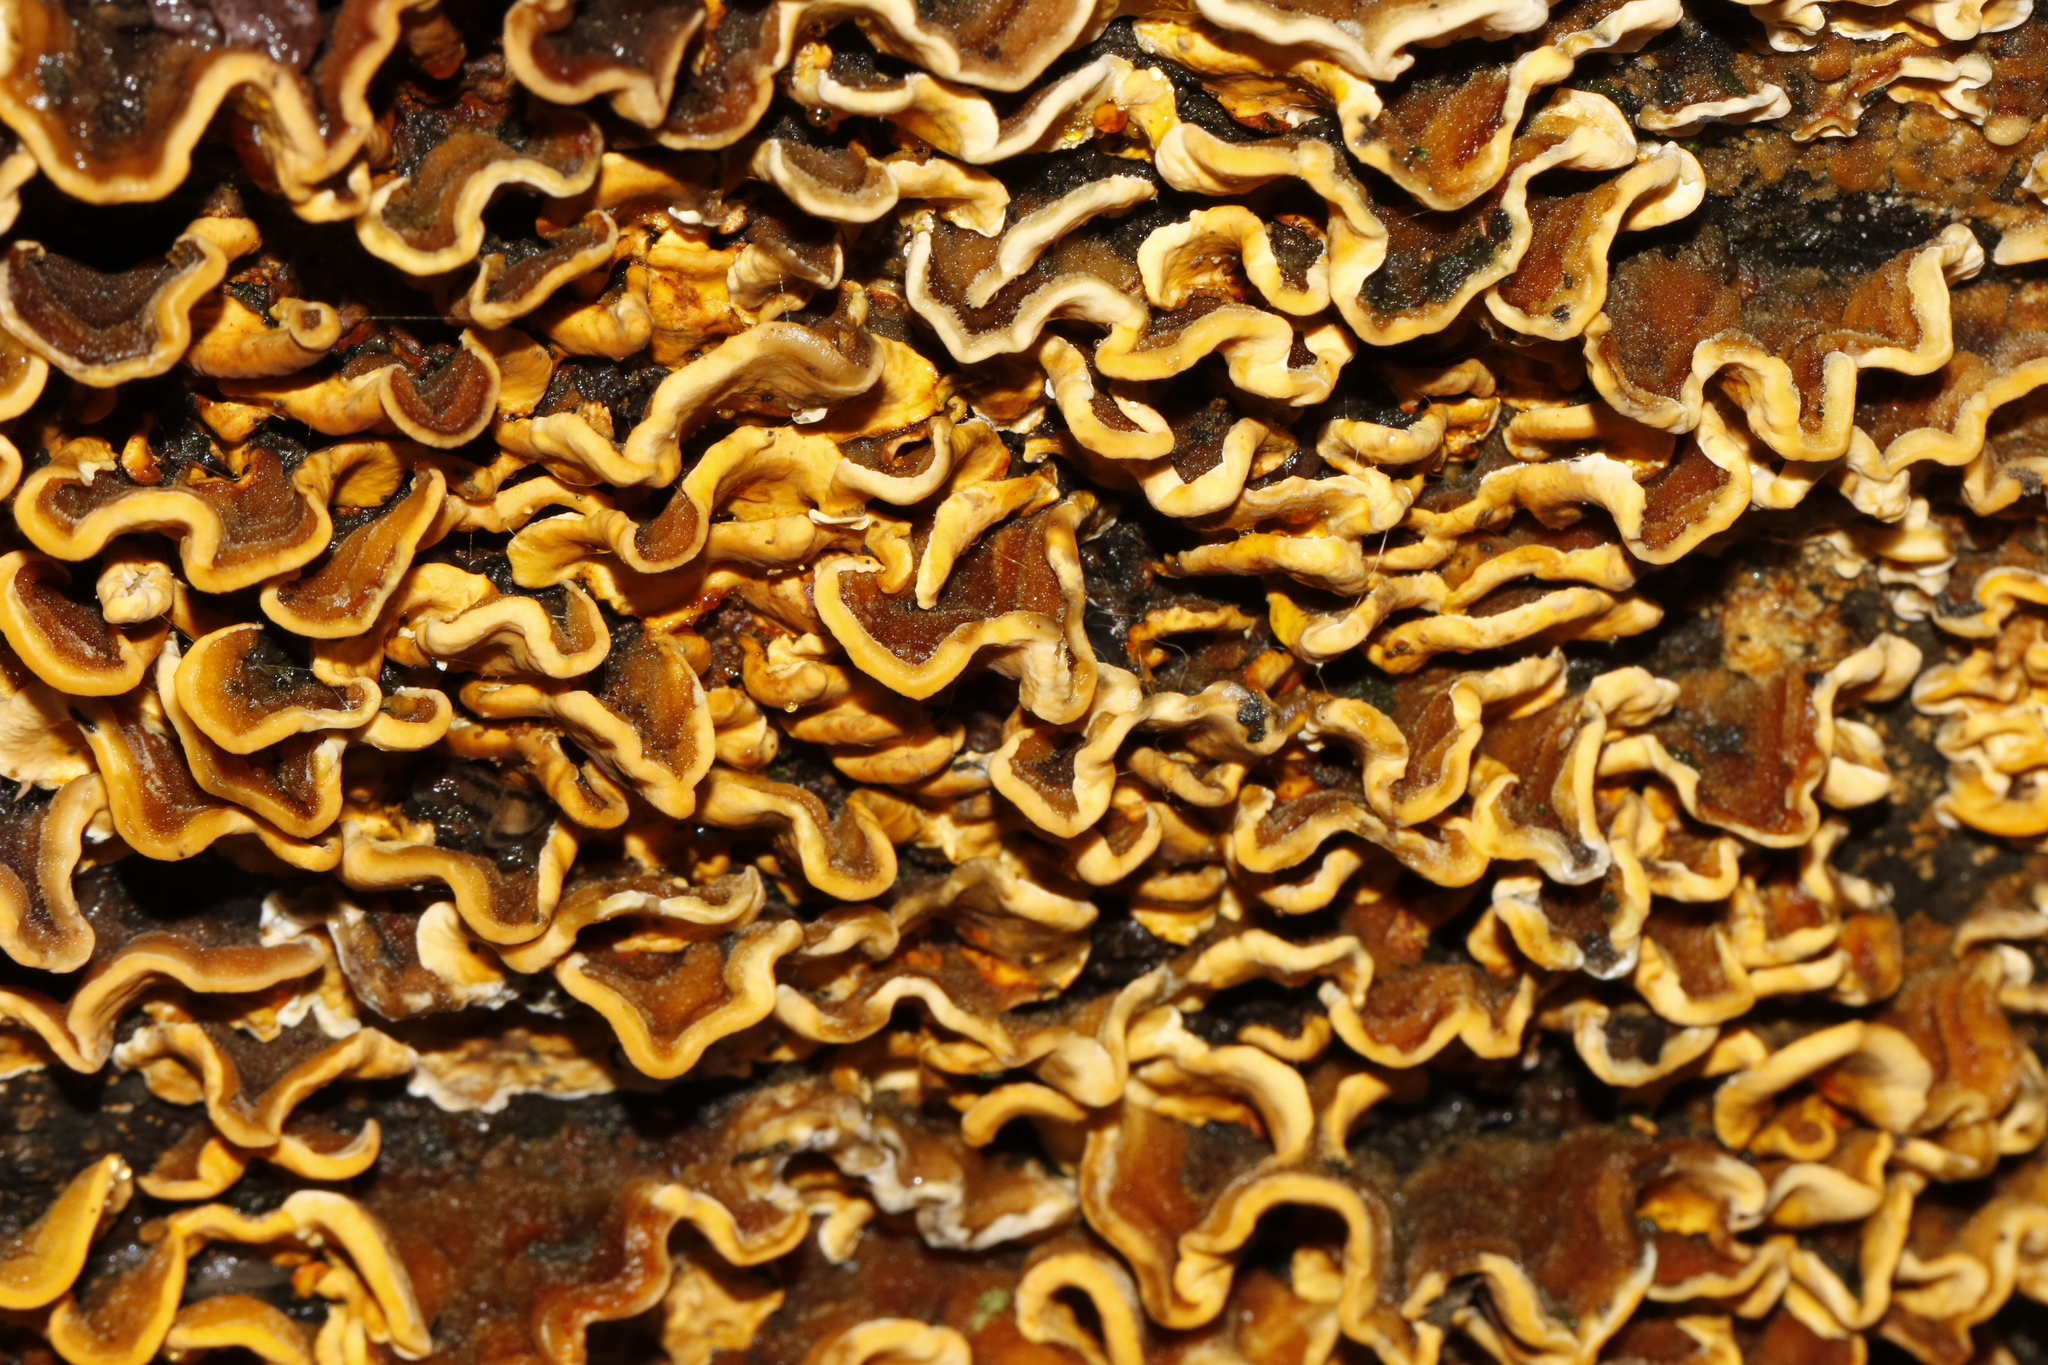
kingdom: Fungi
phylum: Basidiomycota
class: Agaricomycetes
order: Russulales
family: Stereaceae
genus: Stereum
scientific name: Stereum hirsutum
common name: Hairy curtain crust
